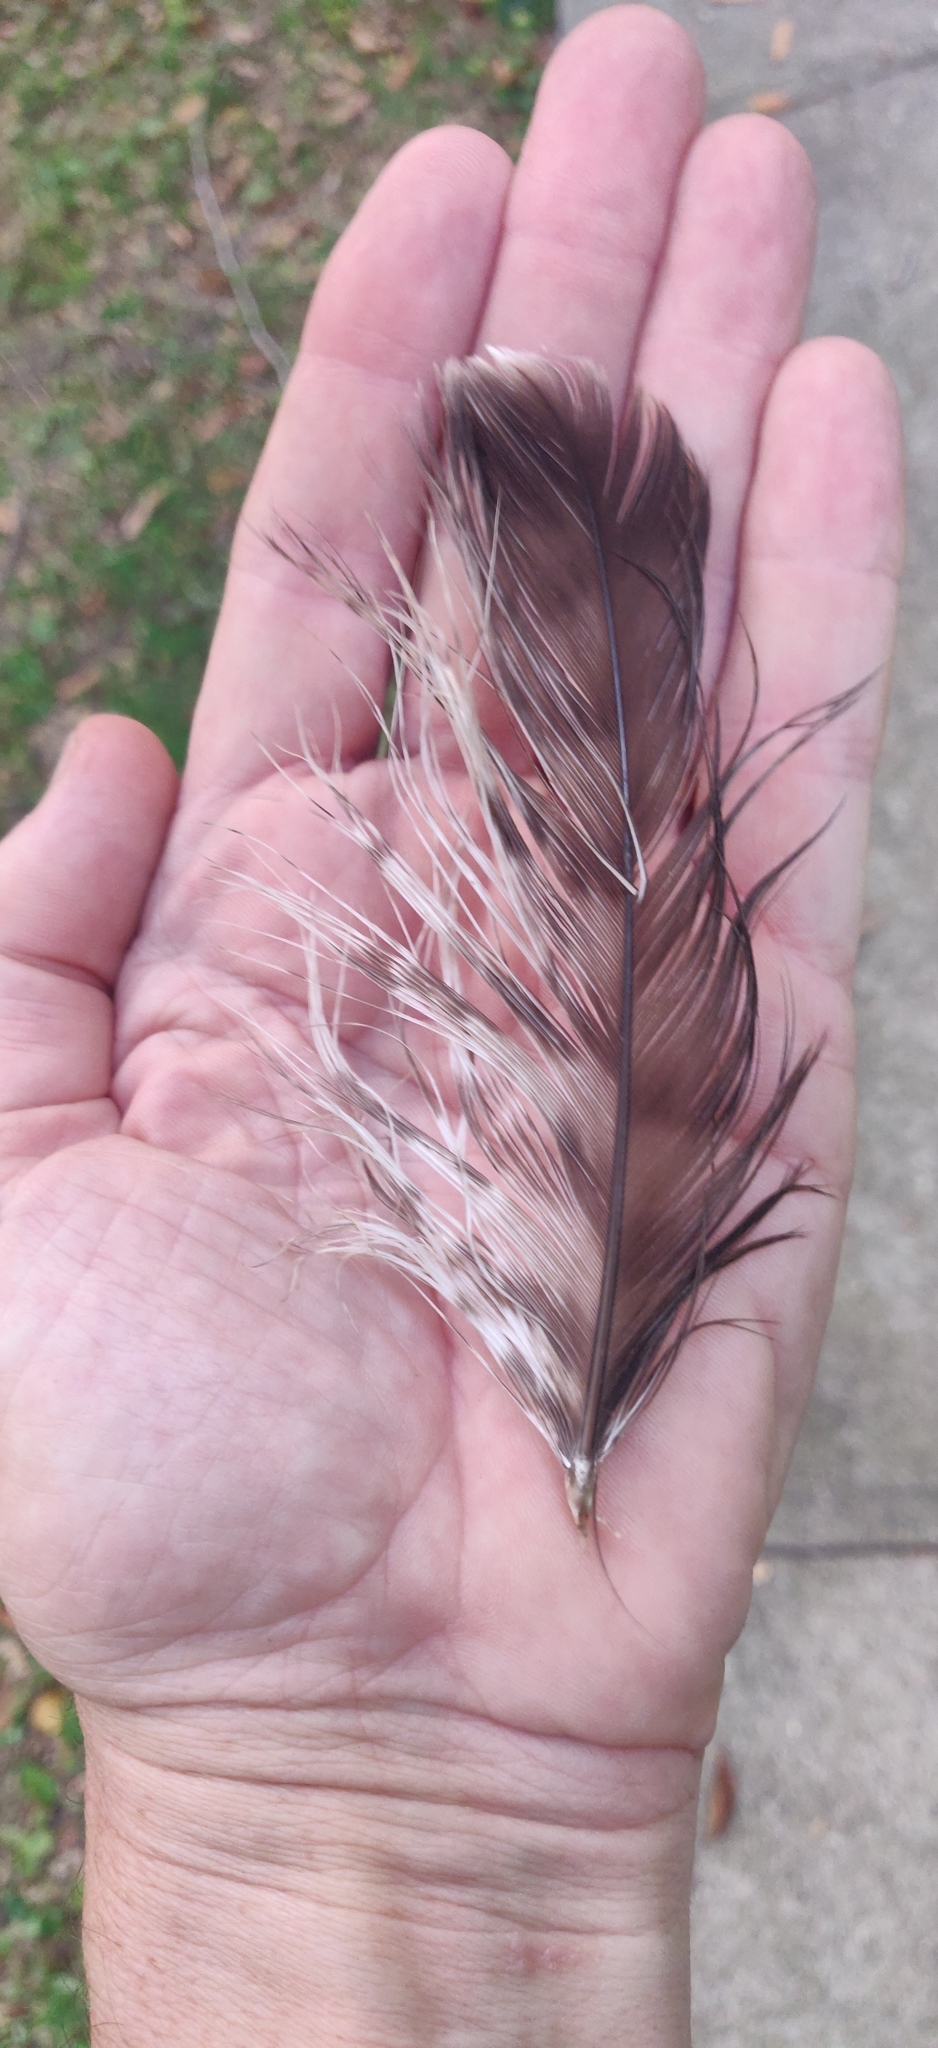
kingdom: Animalia
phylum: Chordata
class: Aves
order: Accipitriformes
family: Accipitridae
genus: Buteo
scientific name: Buteo jamaicensis
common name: Red-tailed hawk
